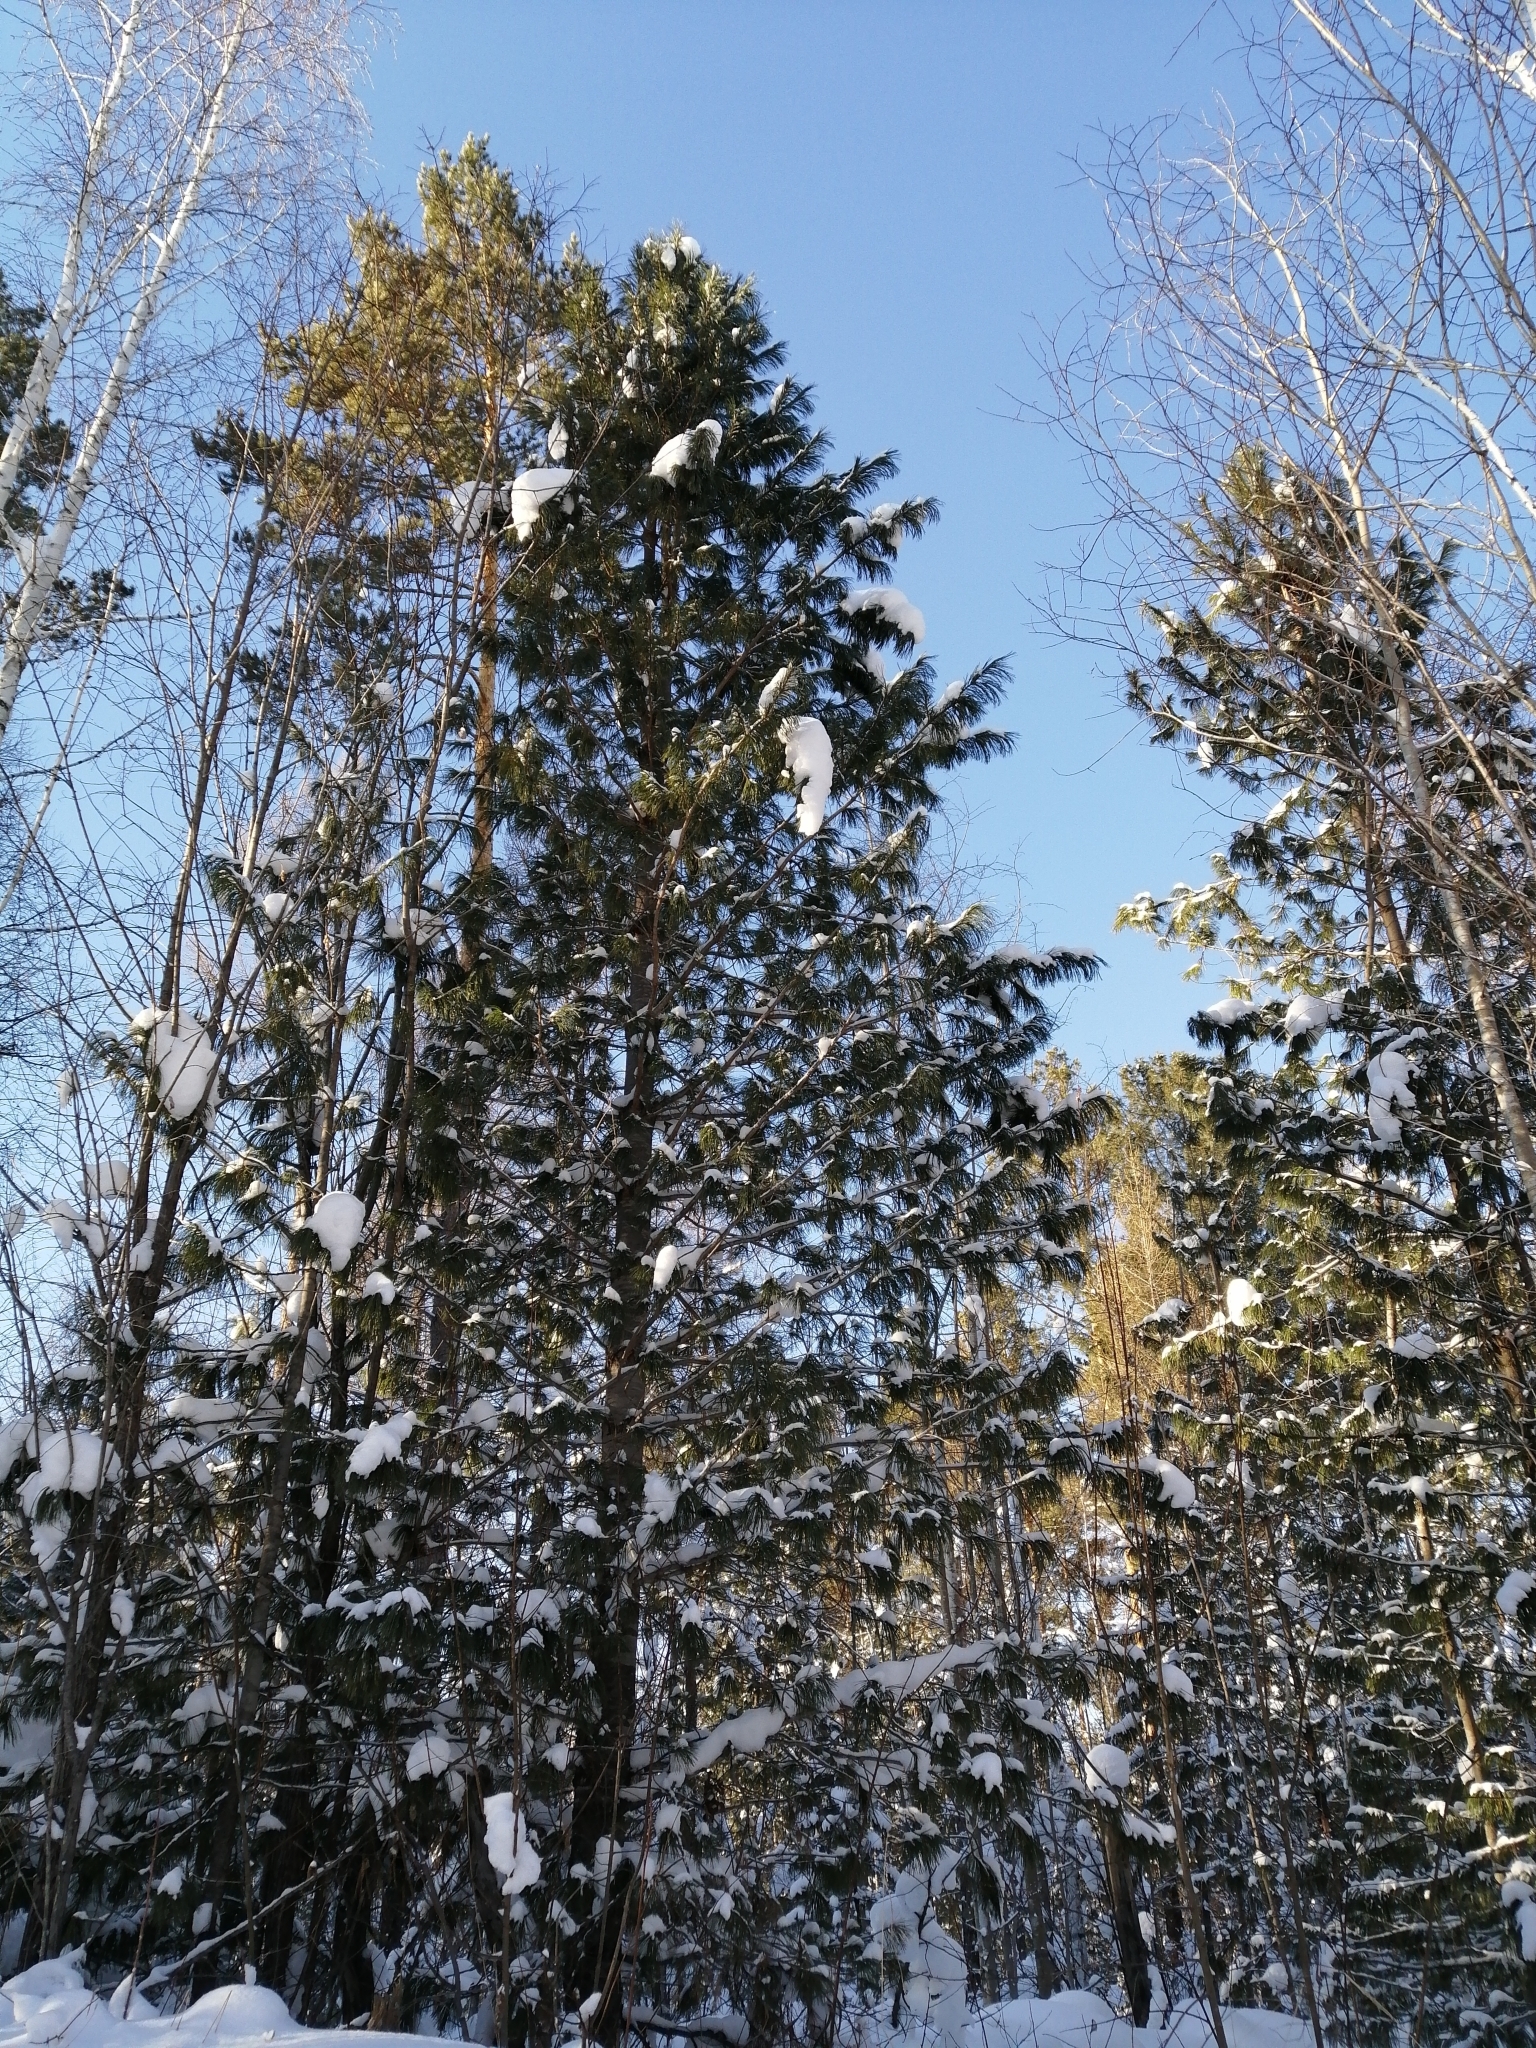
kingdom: Plantae
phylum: Tracheophyta
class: Pinopsida
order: Pinales
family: Pinaceae
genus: Pinus
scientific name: Pinus sibirica
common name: Siberian pine
